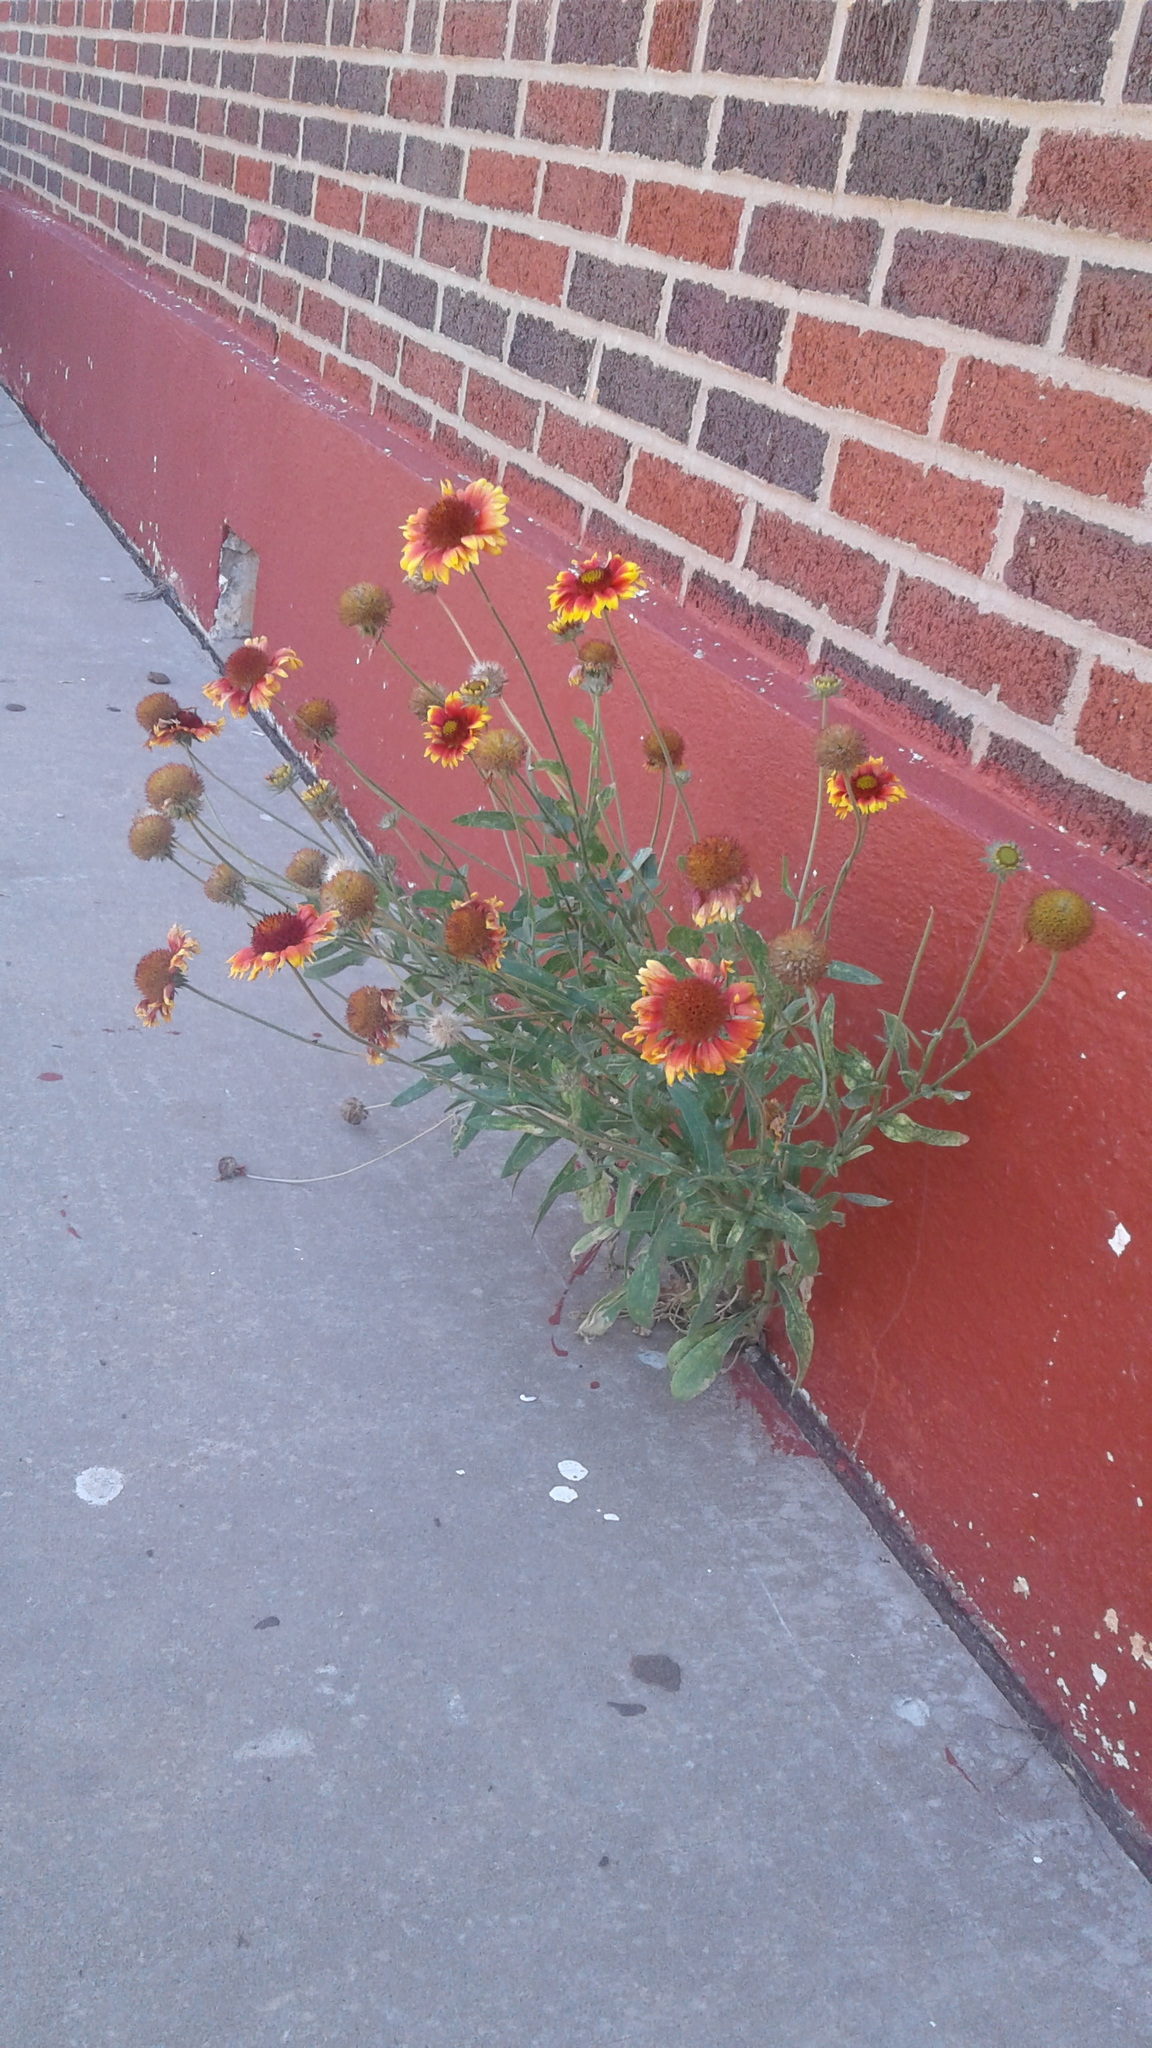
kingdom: Plantae
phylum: Tracheophyta
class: Magnoliopsida
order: Asterales
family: Asteraceae
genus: Gaillardia
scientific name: Gaillardia pulchella
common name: Firewheel
